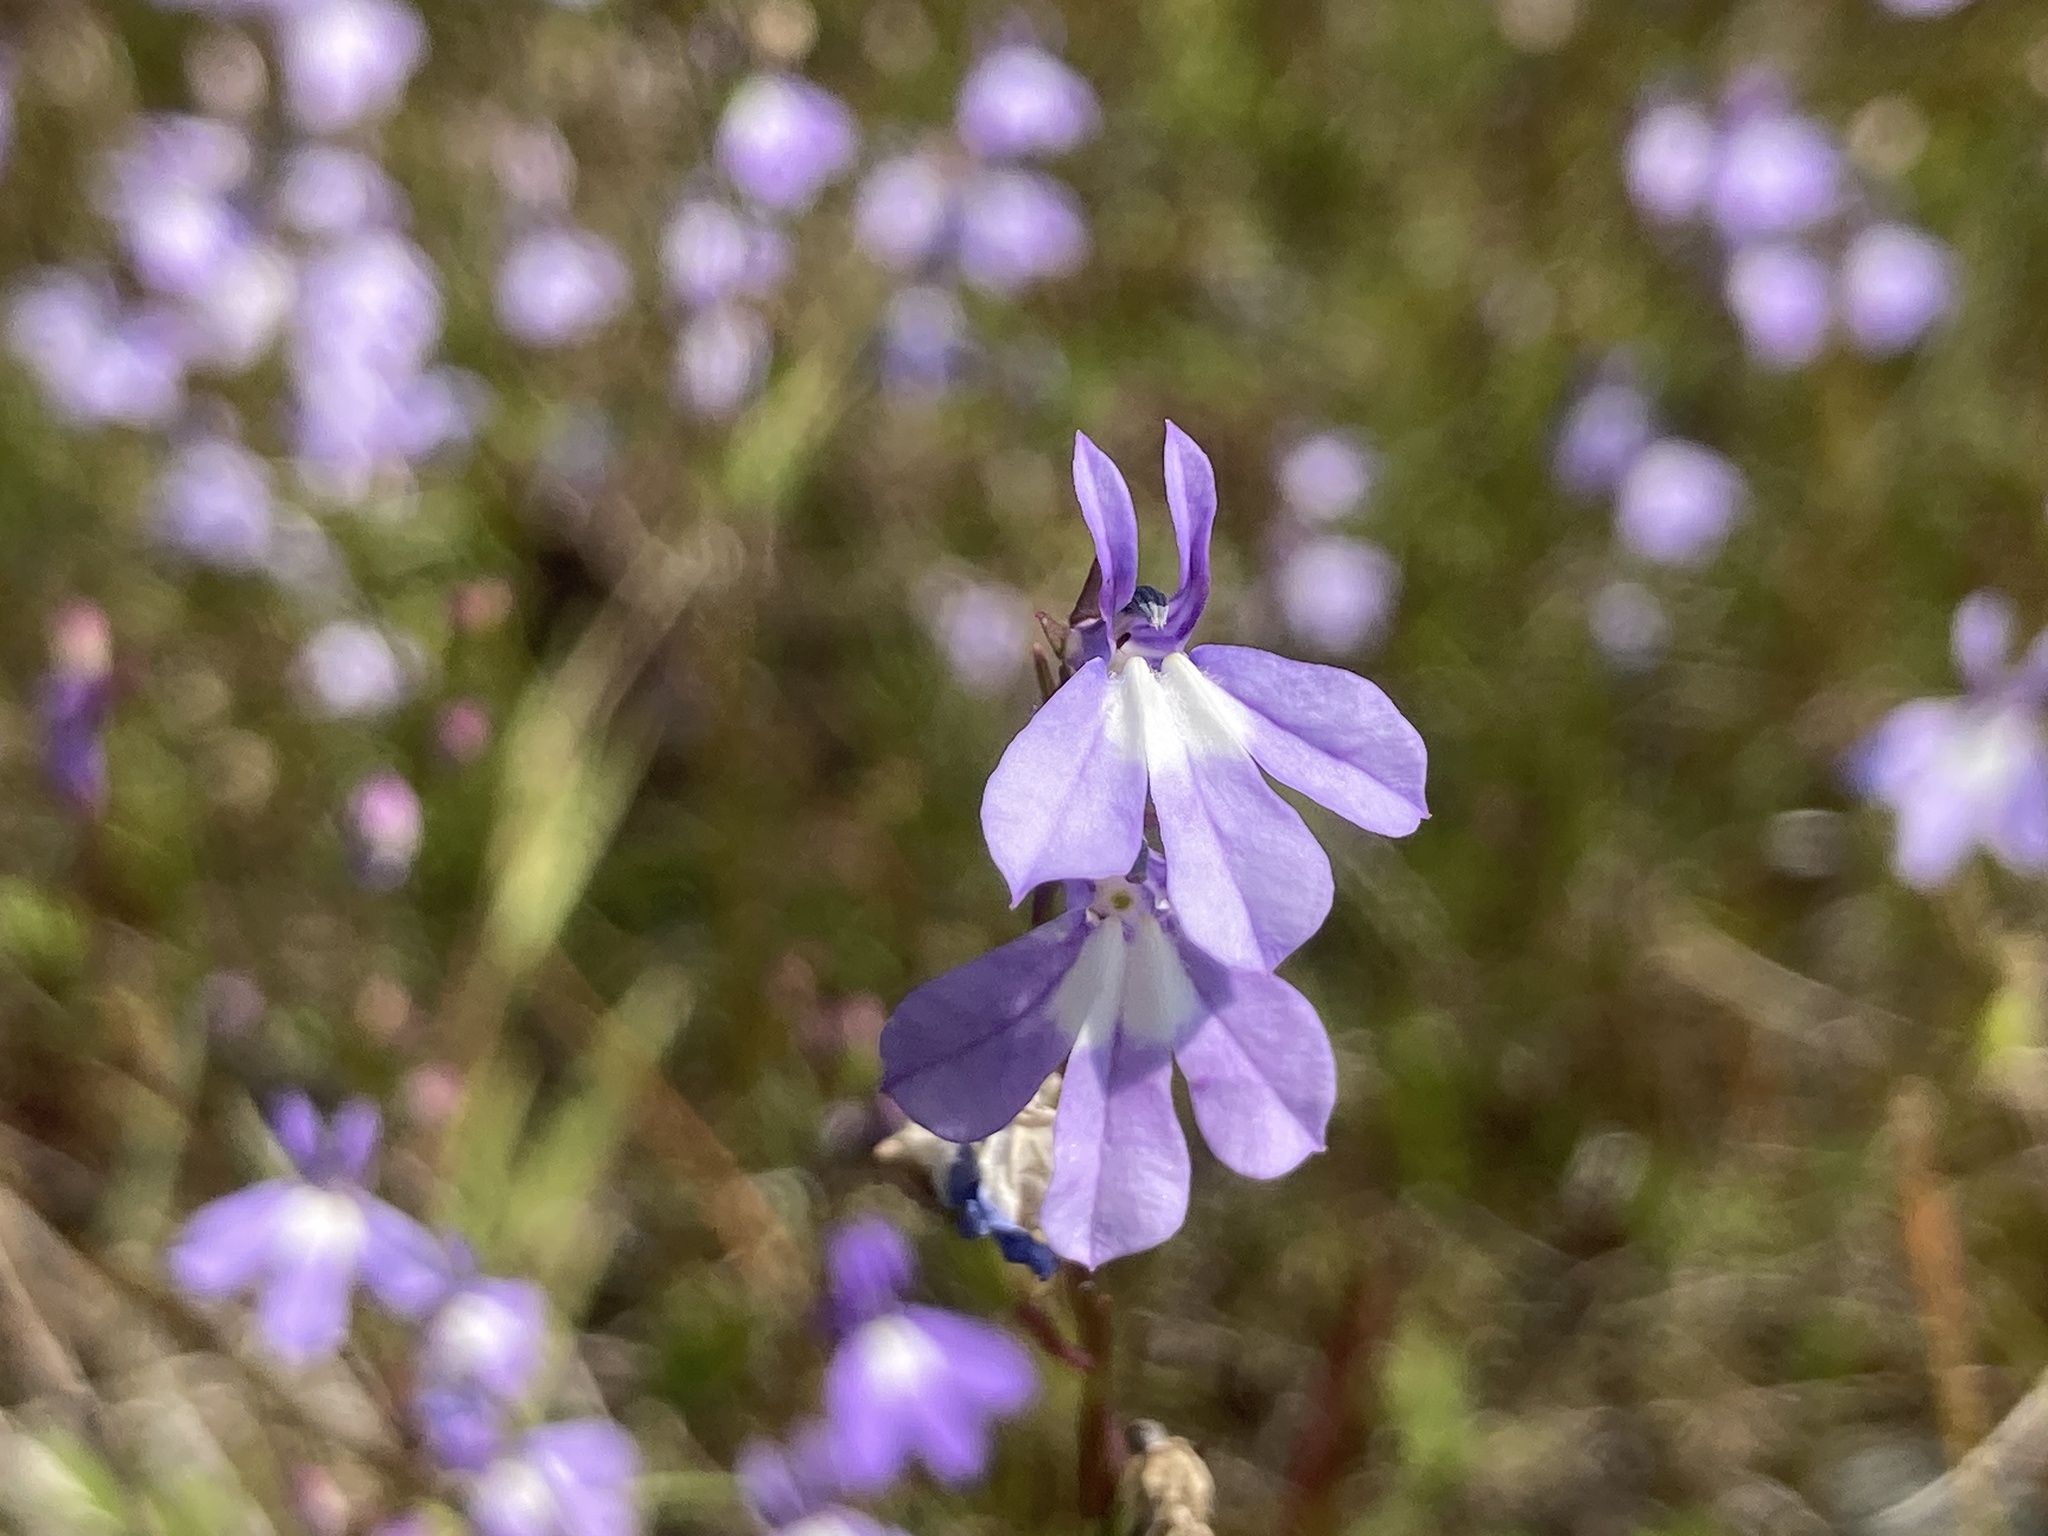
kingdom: Plantae
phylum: Tracheophyta
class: Magnoliopsida
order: Asterales
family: Campanulaceae
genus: Lobelia
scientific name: Lobelia kalmii
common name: Kalm's lobelia
